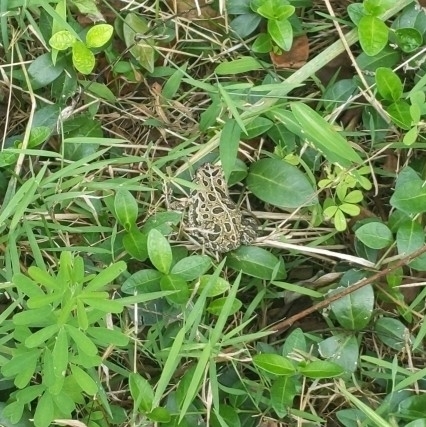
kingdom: Animalia
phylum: Chordata
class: Amphibia
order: Anura
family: Bufonidae
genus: Anaxyrus
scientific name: Anaxyrus fowleri
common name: Fowler's toad
